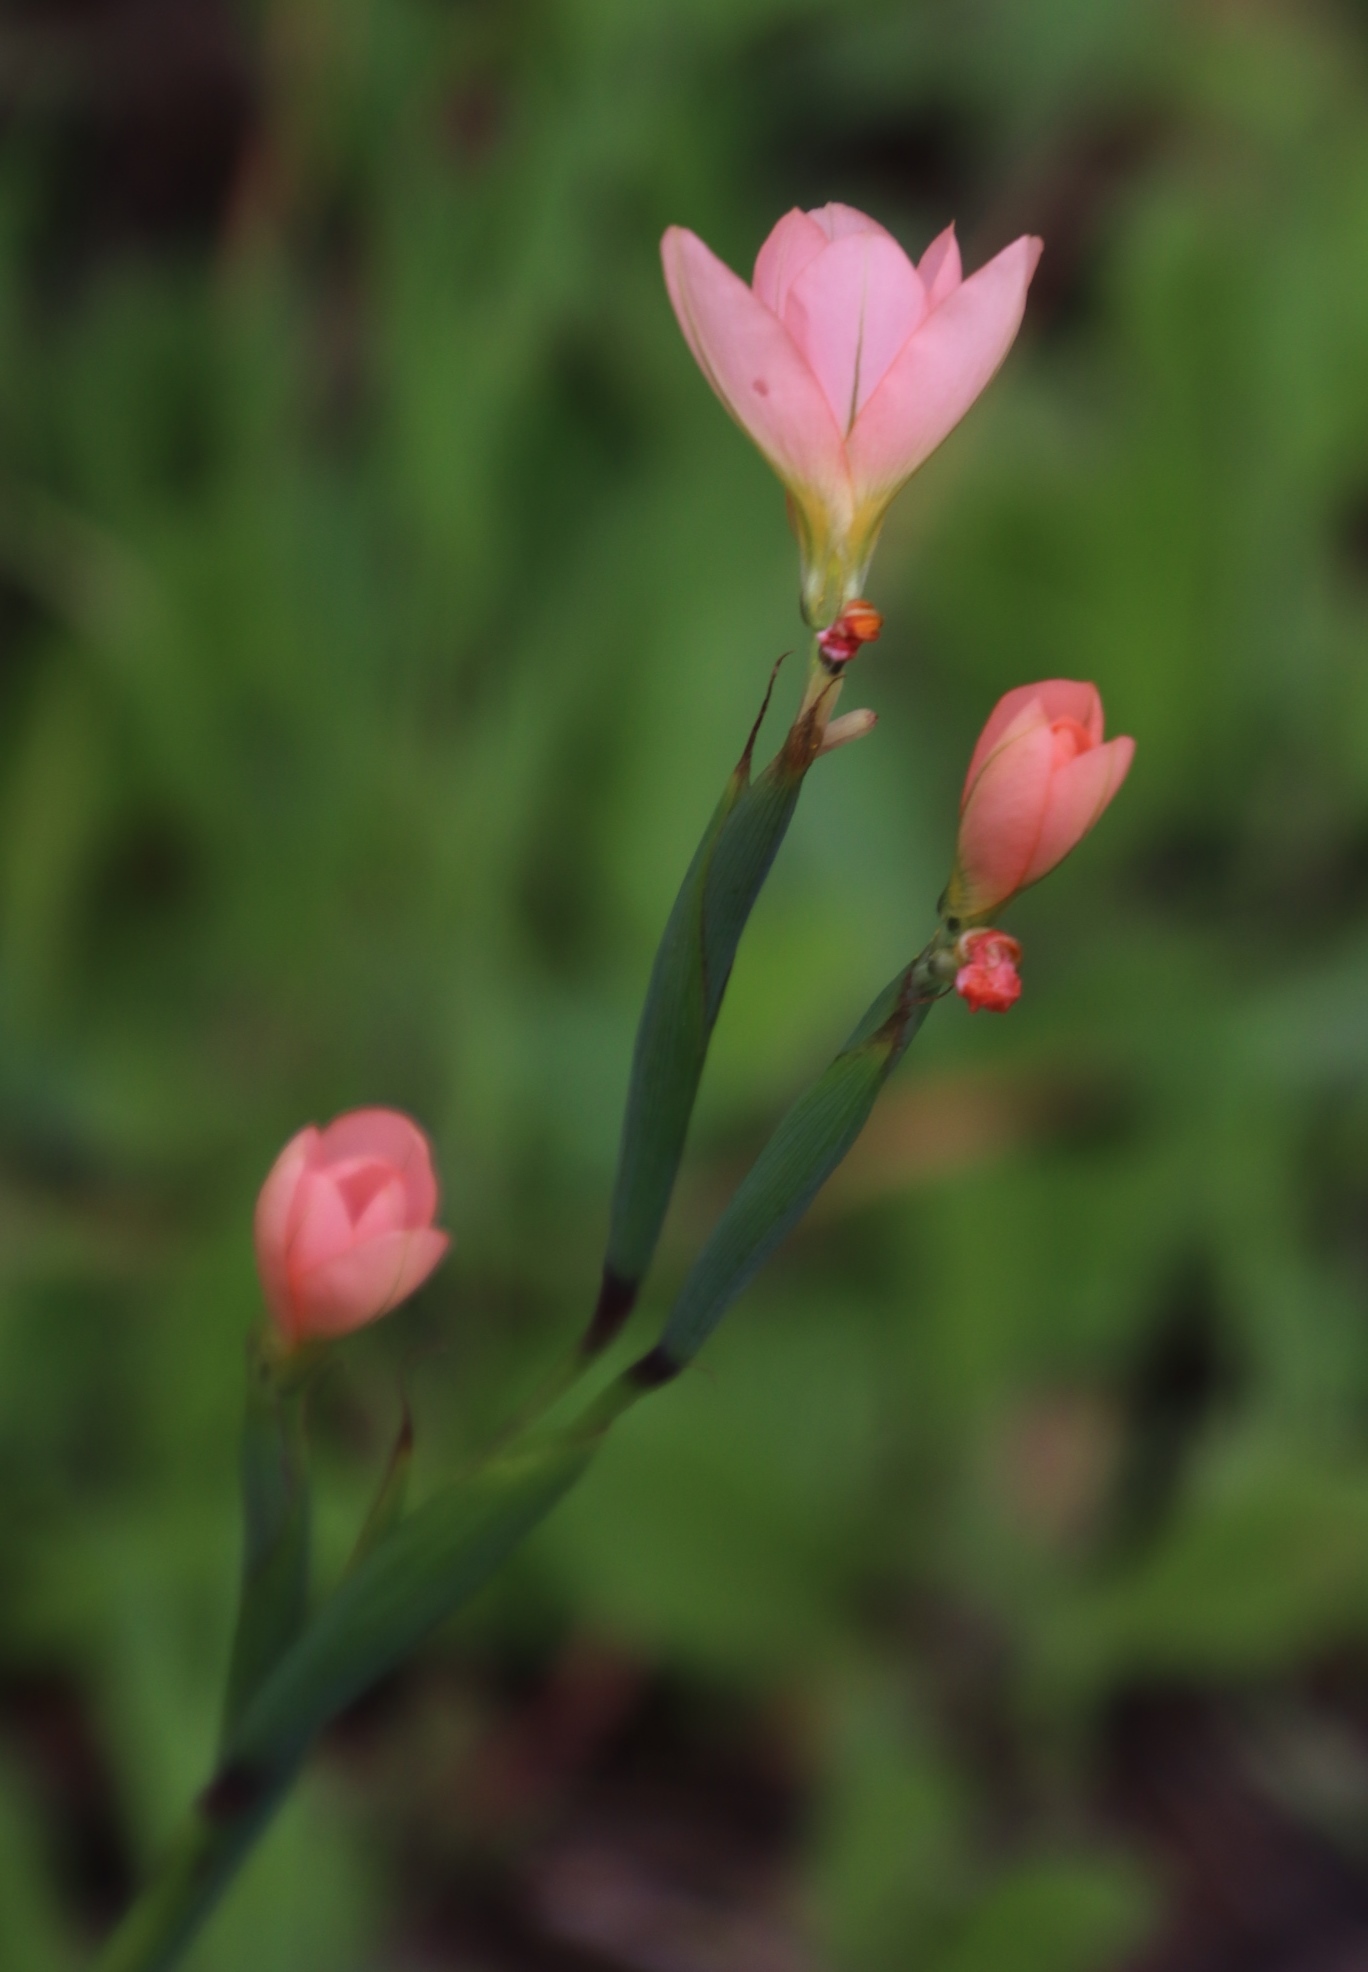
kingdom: Plantae
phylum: Tracheophyta
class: Liliopsida
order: Asparagales
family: Iridaceae
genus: Moraea
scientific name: Moraea miniata
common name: Two-leaf cape-tulip
